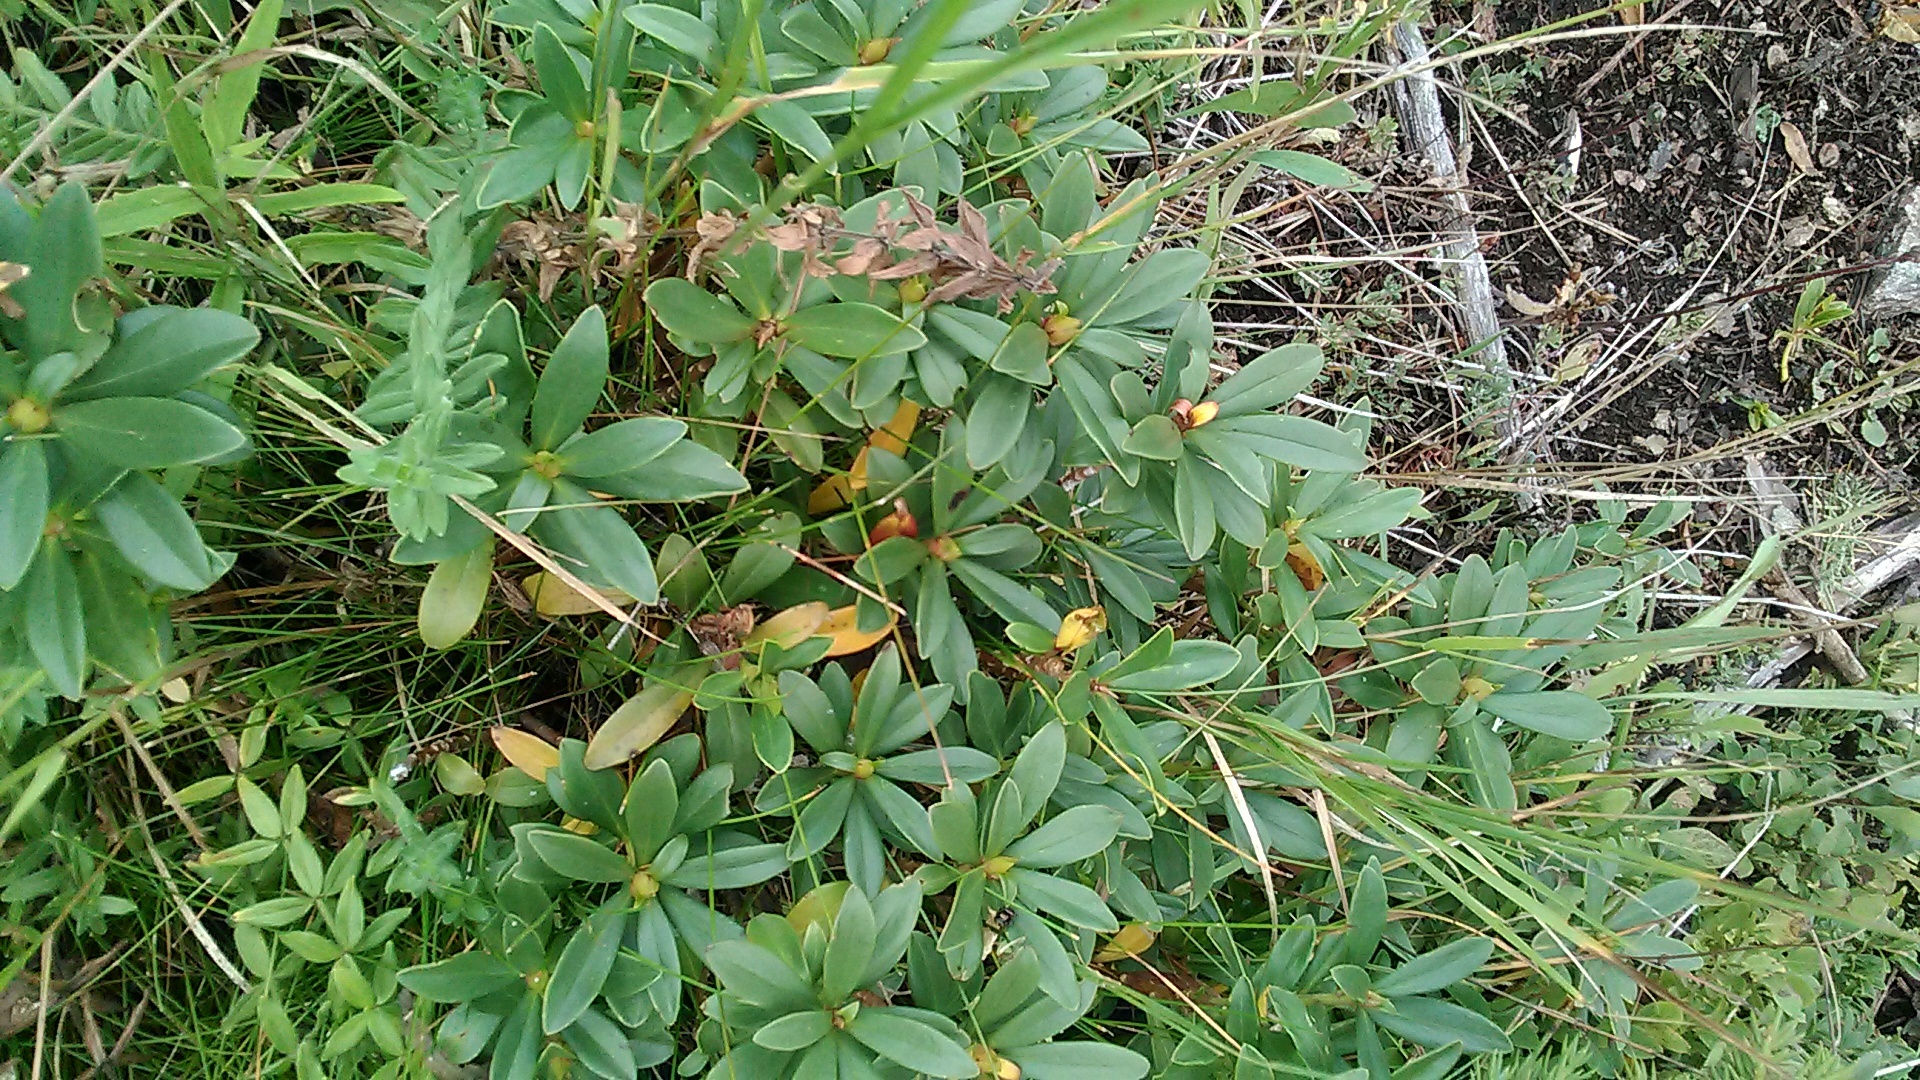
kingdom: Plantae
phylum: Tracheophyta
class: Magnoliopsida
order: Malvales
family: Thymelaeaceae
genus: Daphne
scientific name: Daphne glomerata
